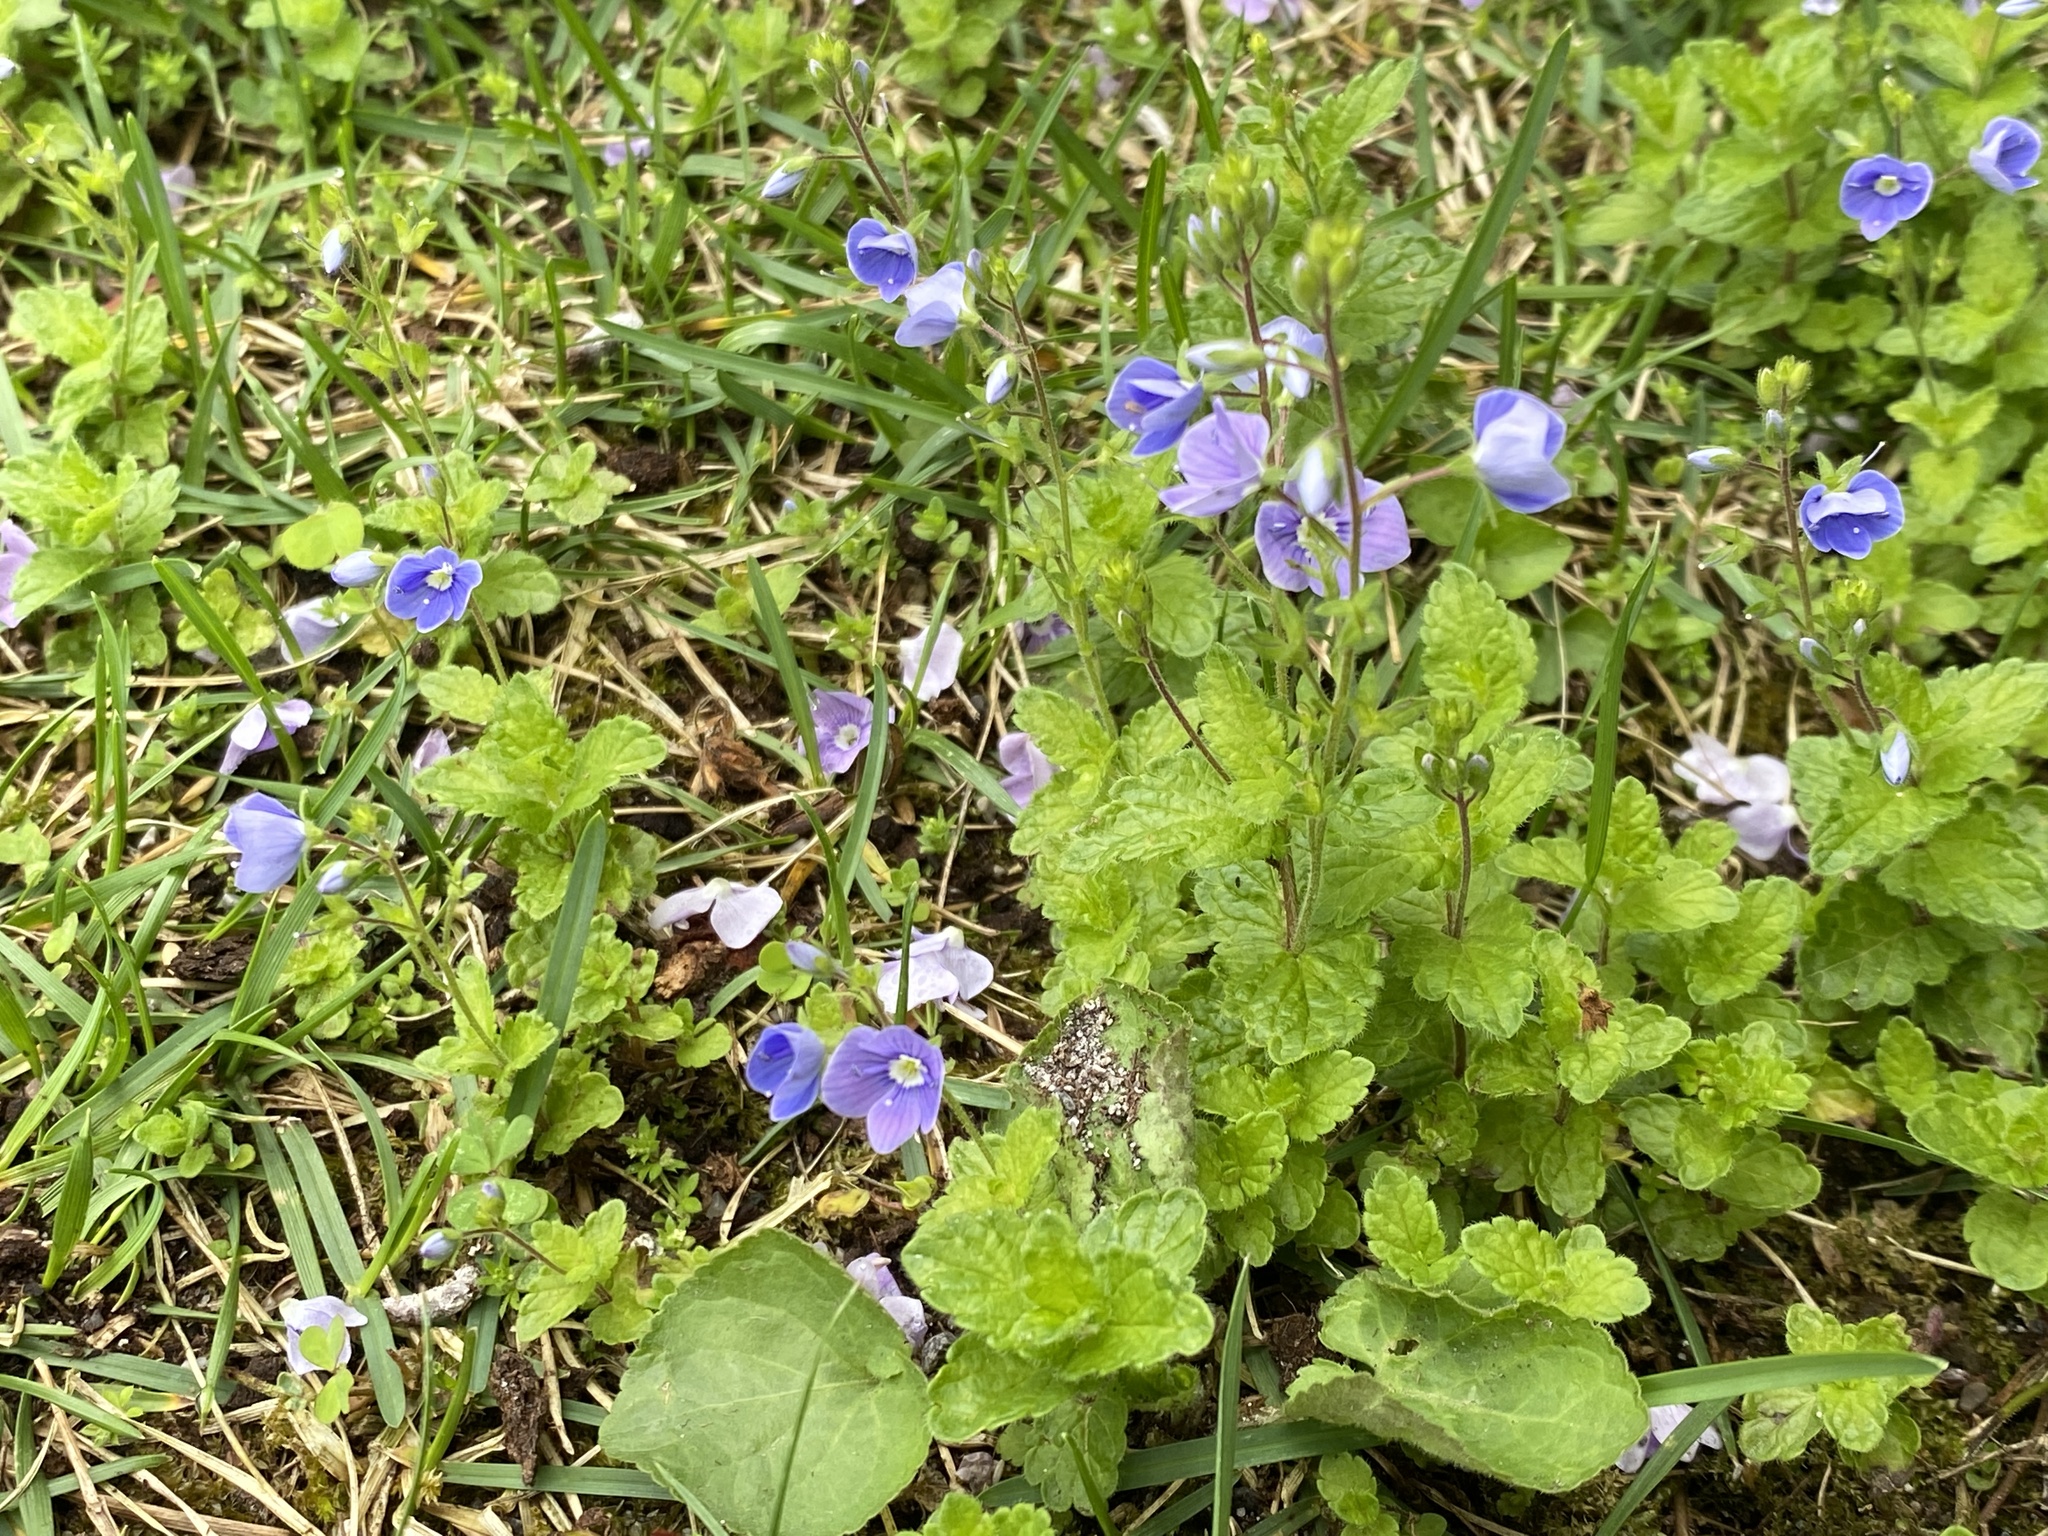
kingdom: Plantae
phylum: Tracheophyta
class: Magnoliopsida
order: Lamiales
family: Plantaginaceae
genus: Veronica
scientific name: Veronica chamaedrys
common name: Germander speedwell
